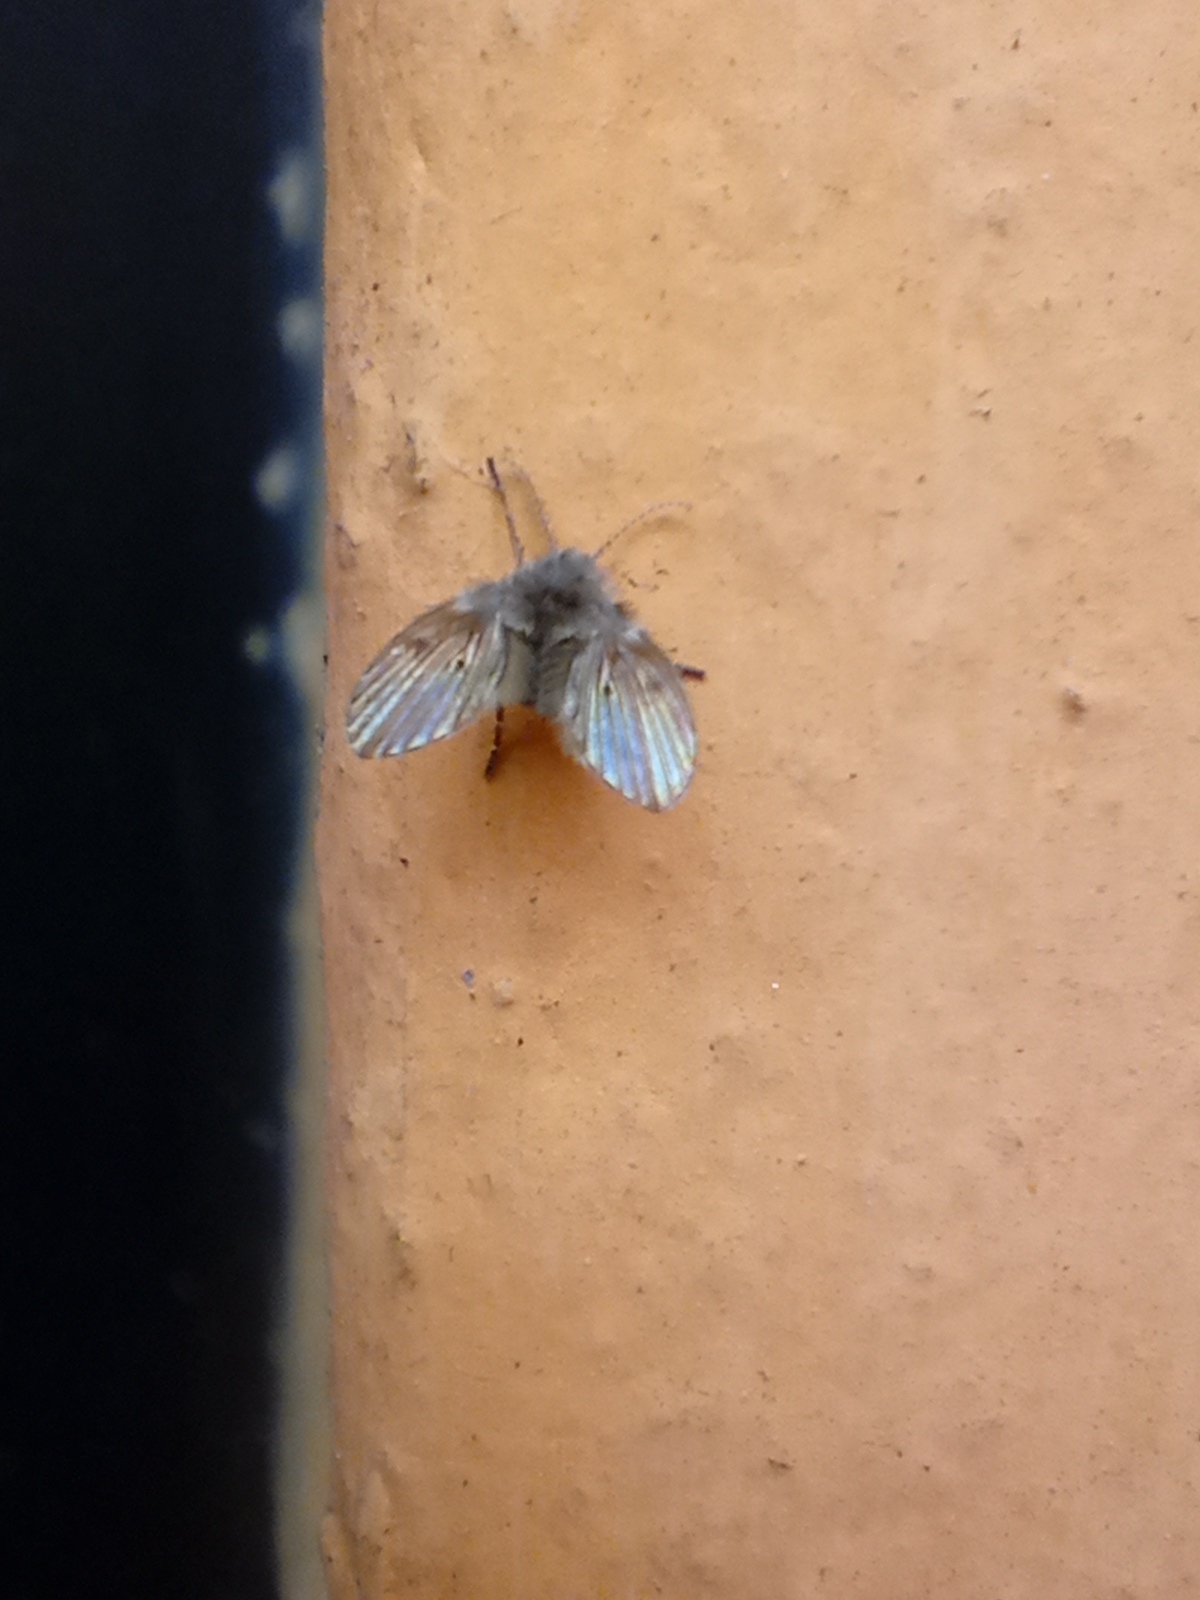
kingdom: Animalia
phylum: Arthropoda
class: Insecta
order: Diptera
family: Psychodidae
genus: Clogmia
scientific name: Clogmia albipunctatus
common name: White-spotted moth fly
